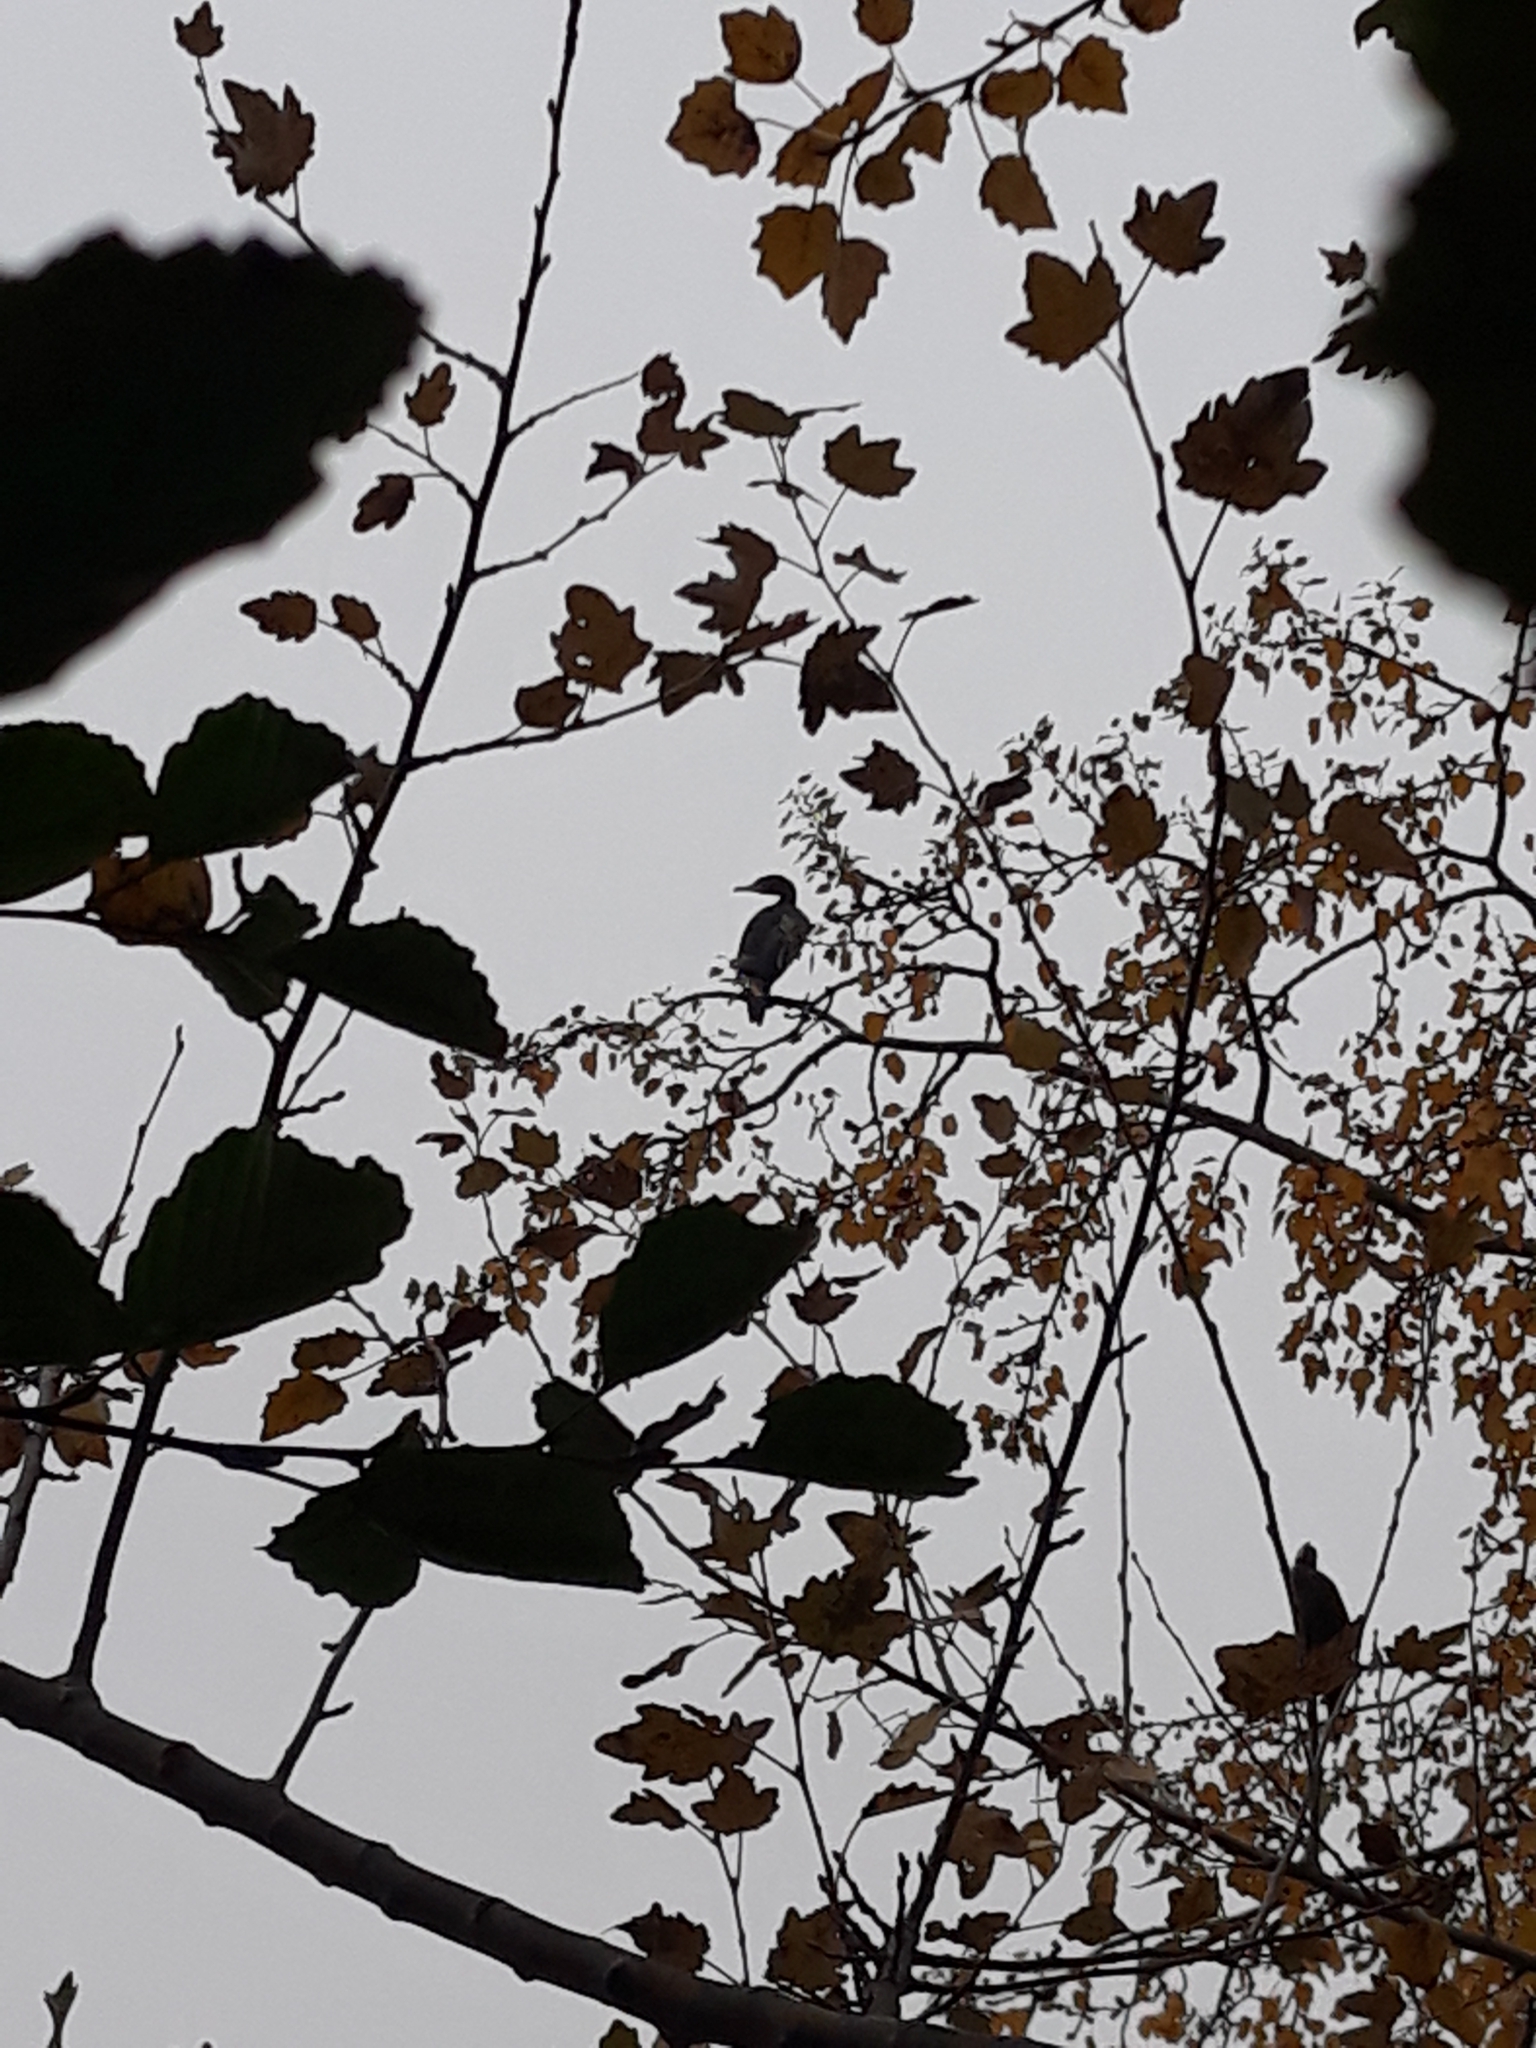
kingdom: Animalia
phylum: Chordata
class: Aves
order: Suliformes
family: Phalacrocoracidae
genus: Phalacrocorax
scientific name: Phalacrocorax carbo
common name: Great cormorant
